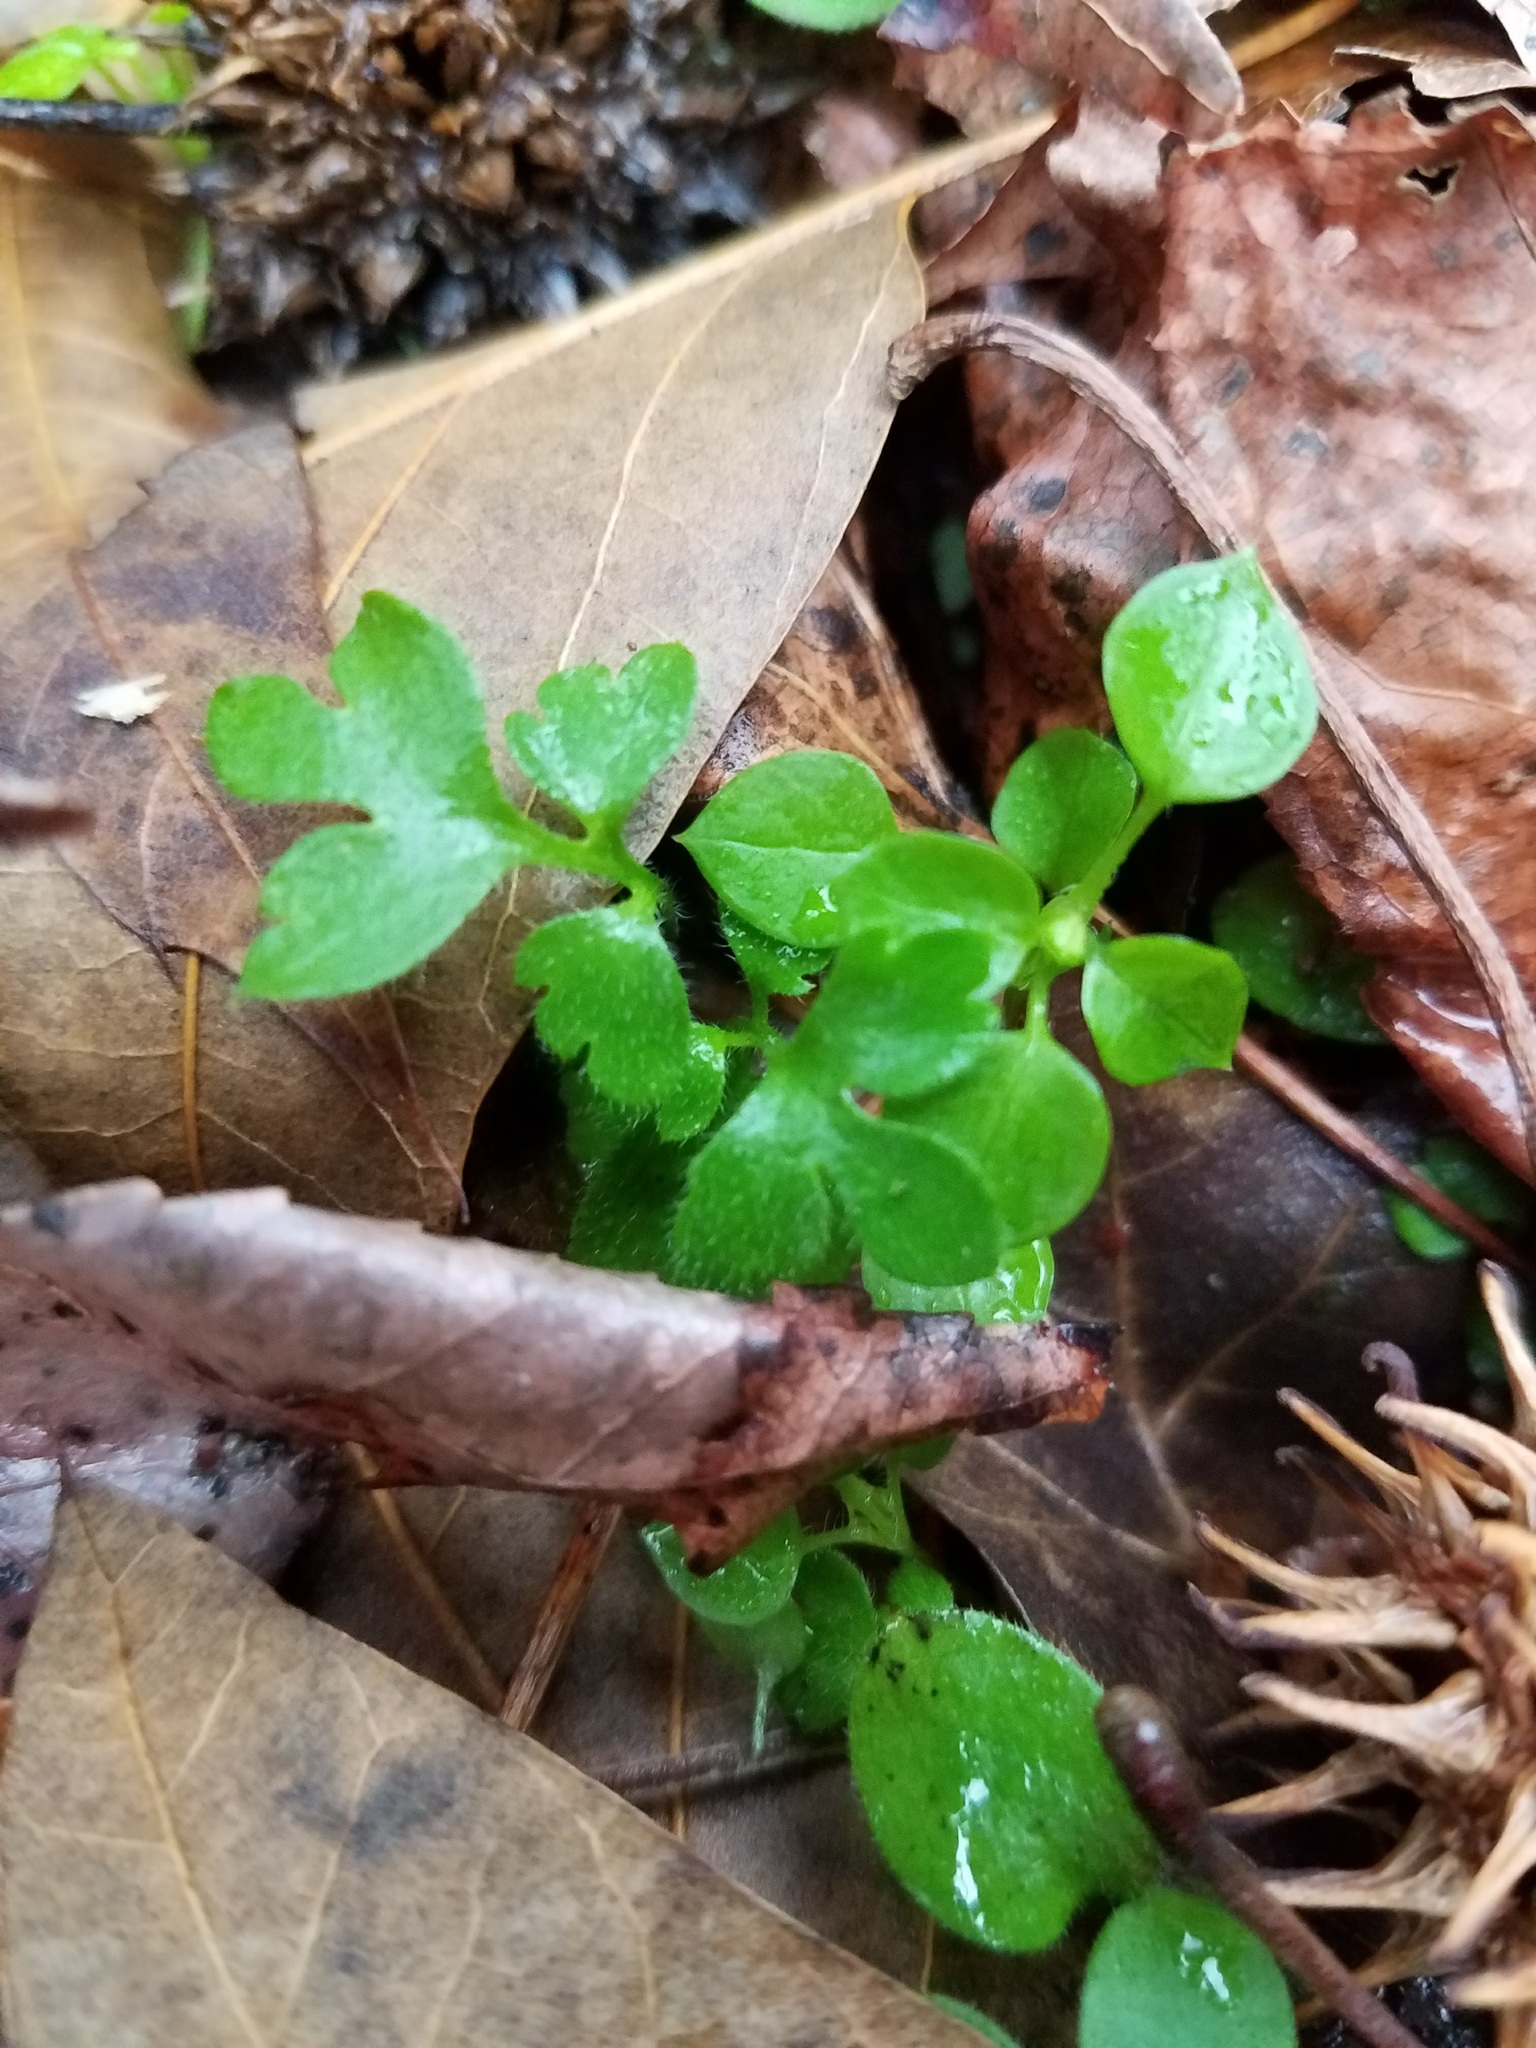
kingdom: Plantae
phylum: Tracheophyta
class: Magnoliopsida
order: Boraginales
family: Hydrophyllaceae
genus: Nemophila
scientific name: Nemophila aphylla
